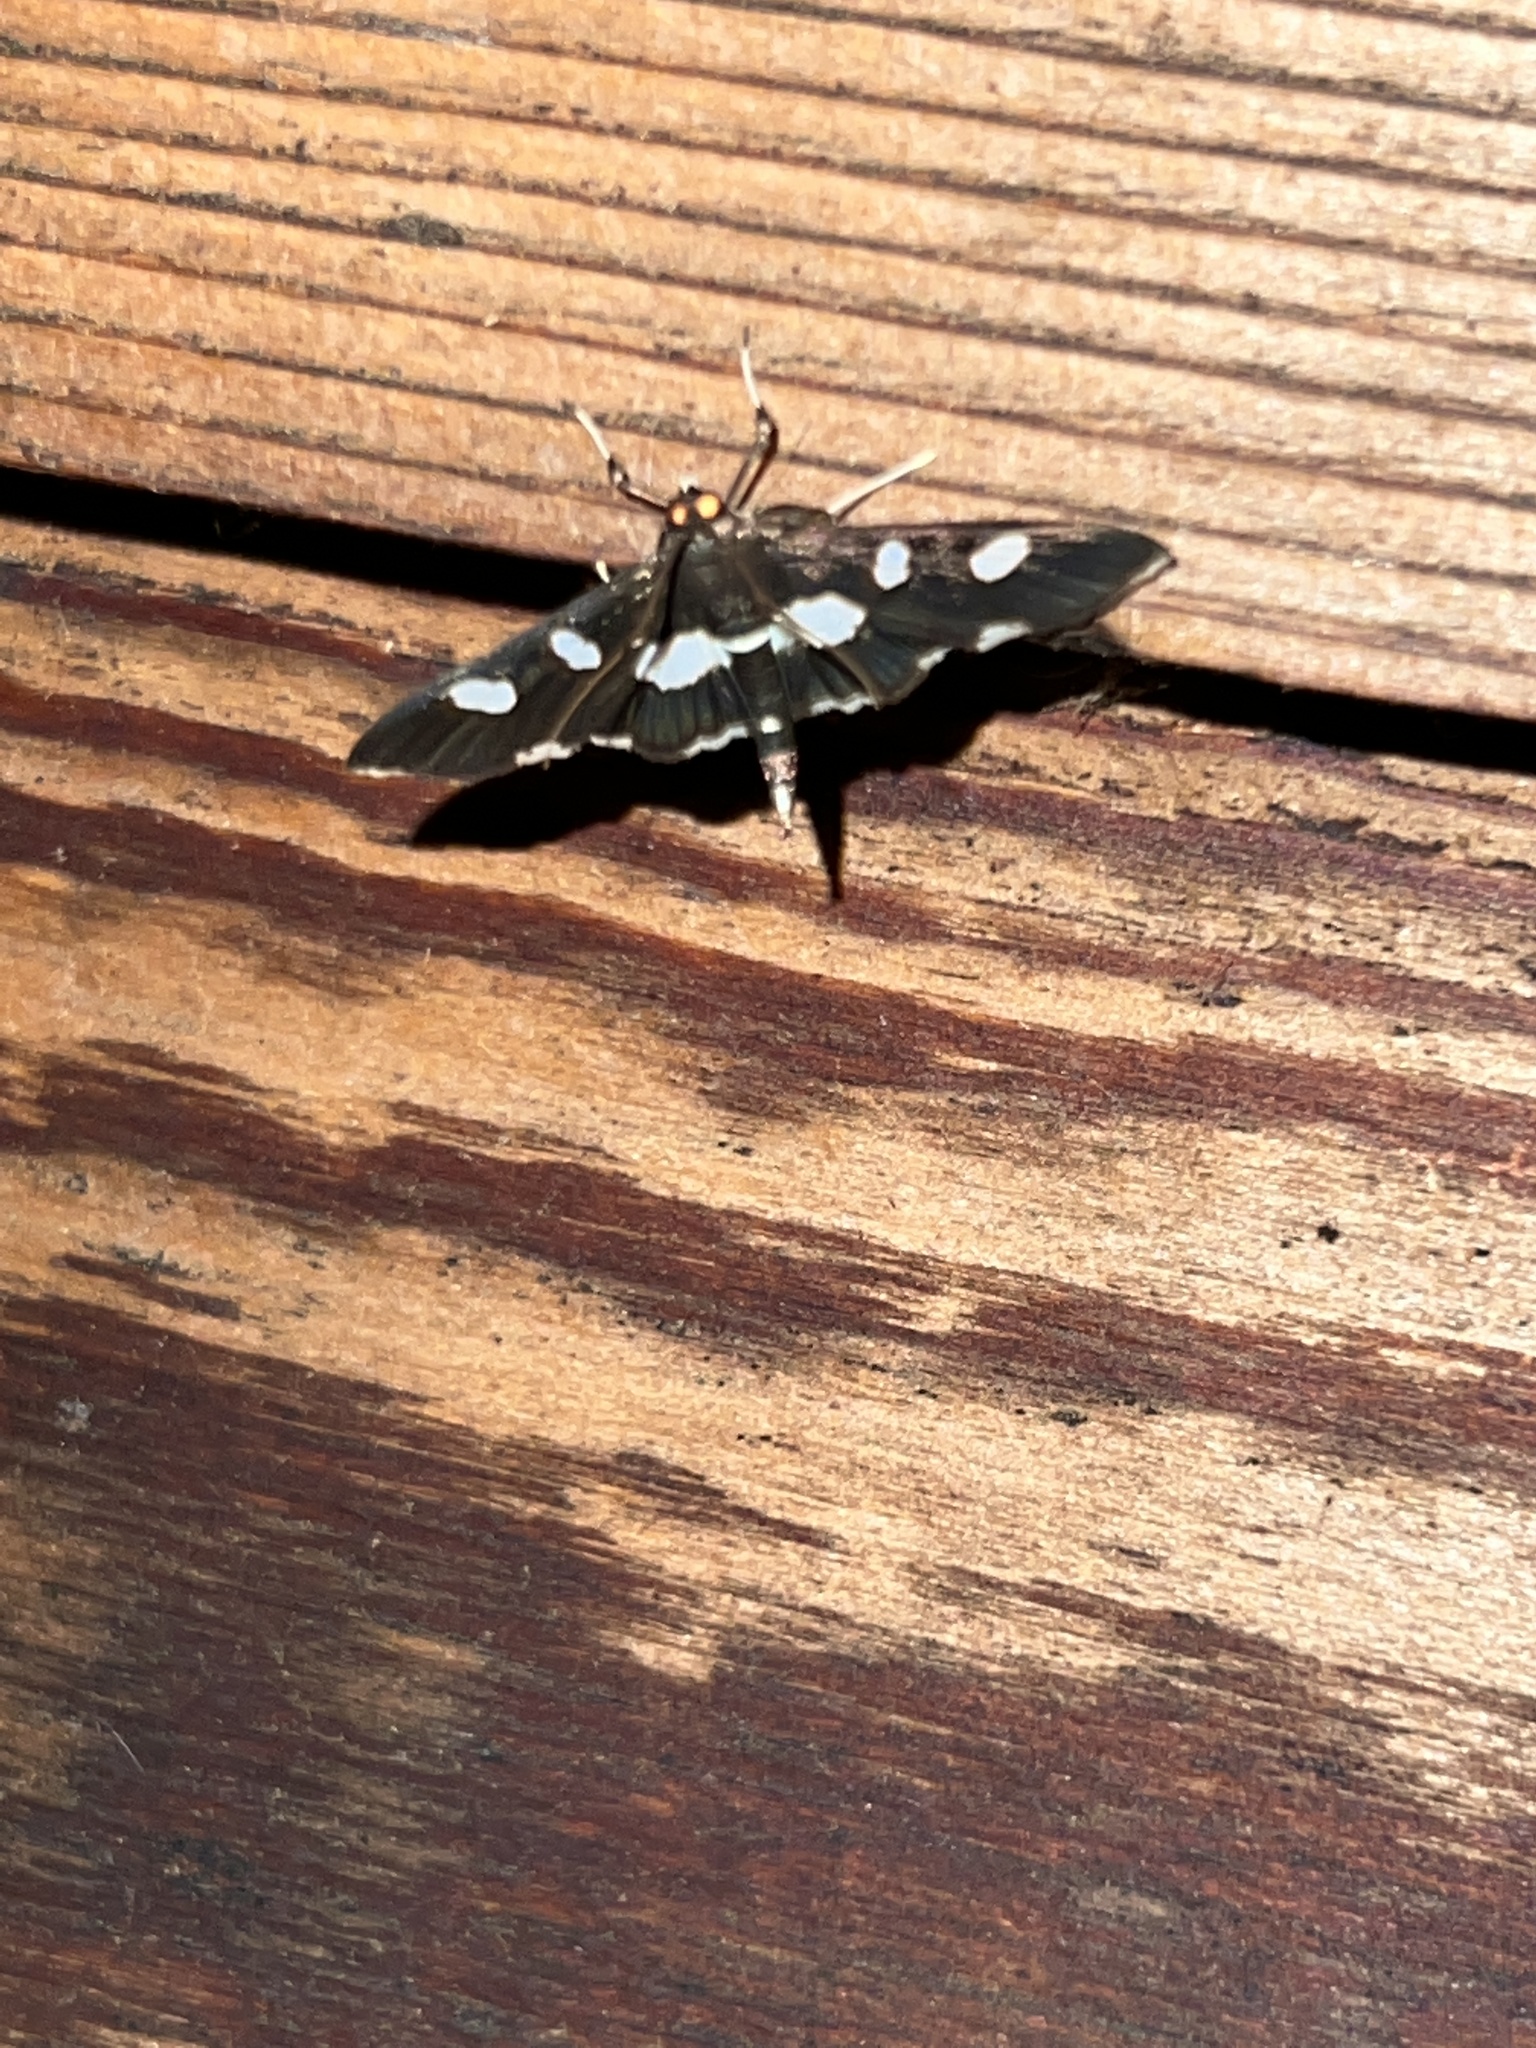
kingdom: Animalia
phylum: Arthropoda
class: Insecta
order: Lepidoptera
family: Crambidae
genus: Desmia
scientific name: Desmia
